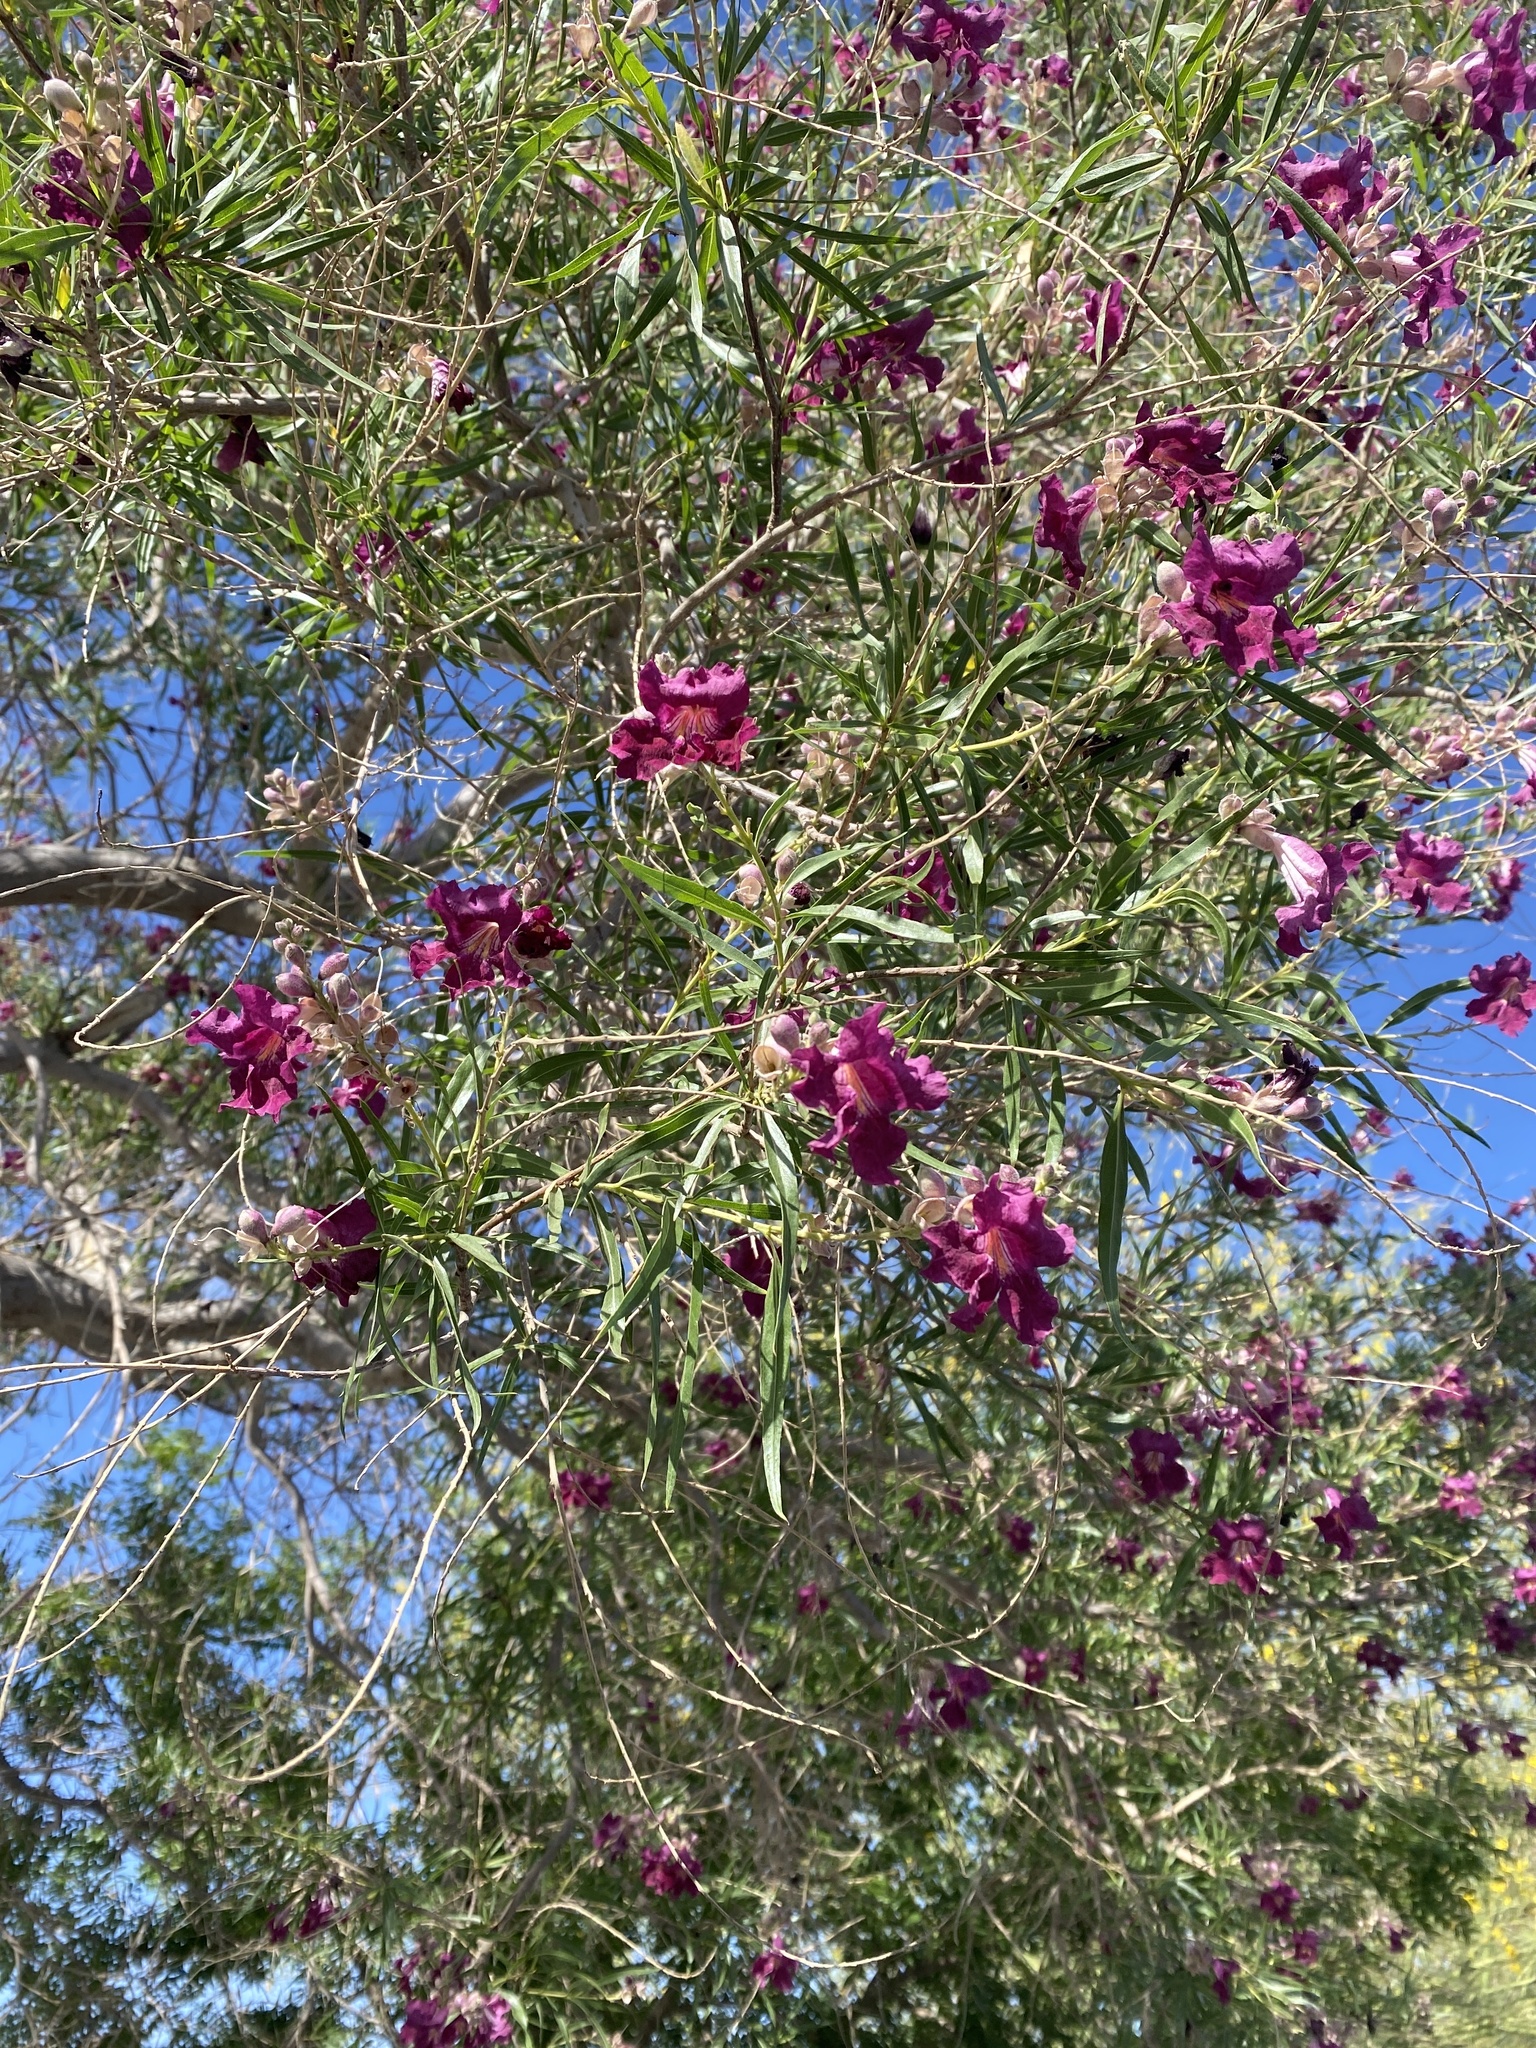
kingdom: Plantae
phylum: Tracheophyta
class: Magnoliopsida
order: Lamiales
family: Bignoniaceae
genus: Chilopsis
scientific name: Chilopsis linearis
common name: Desert-willow
